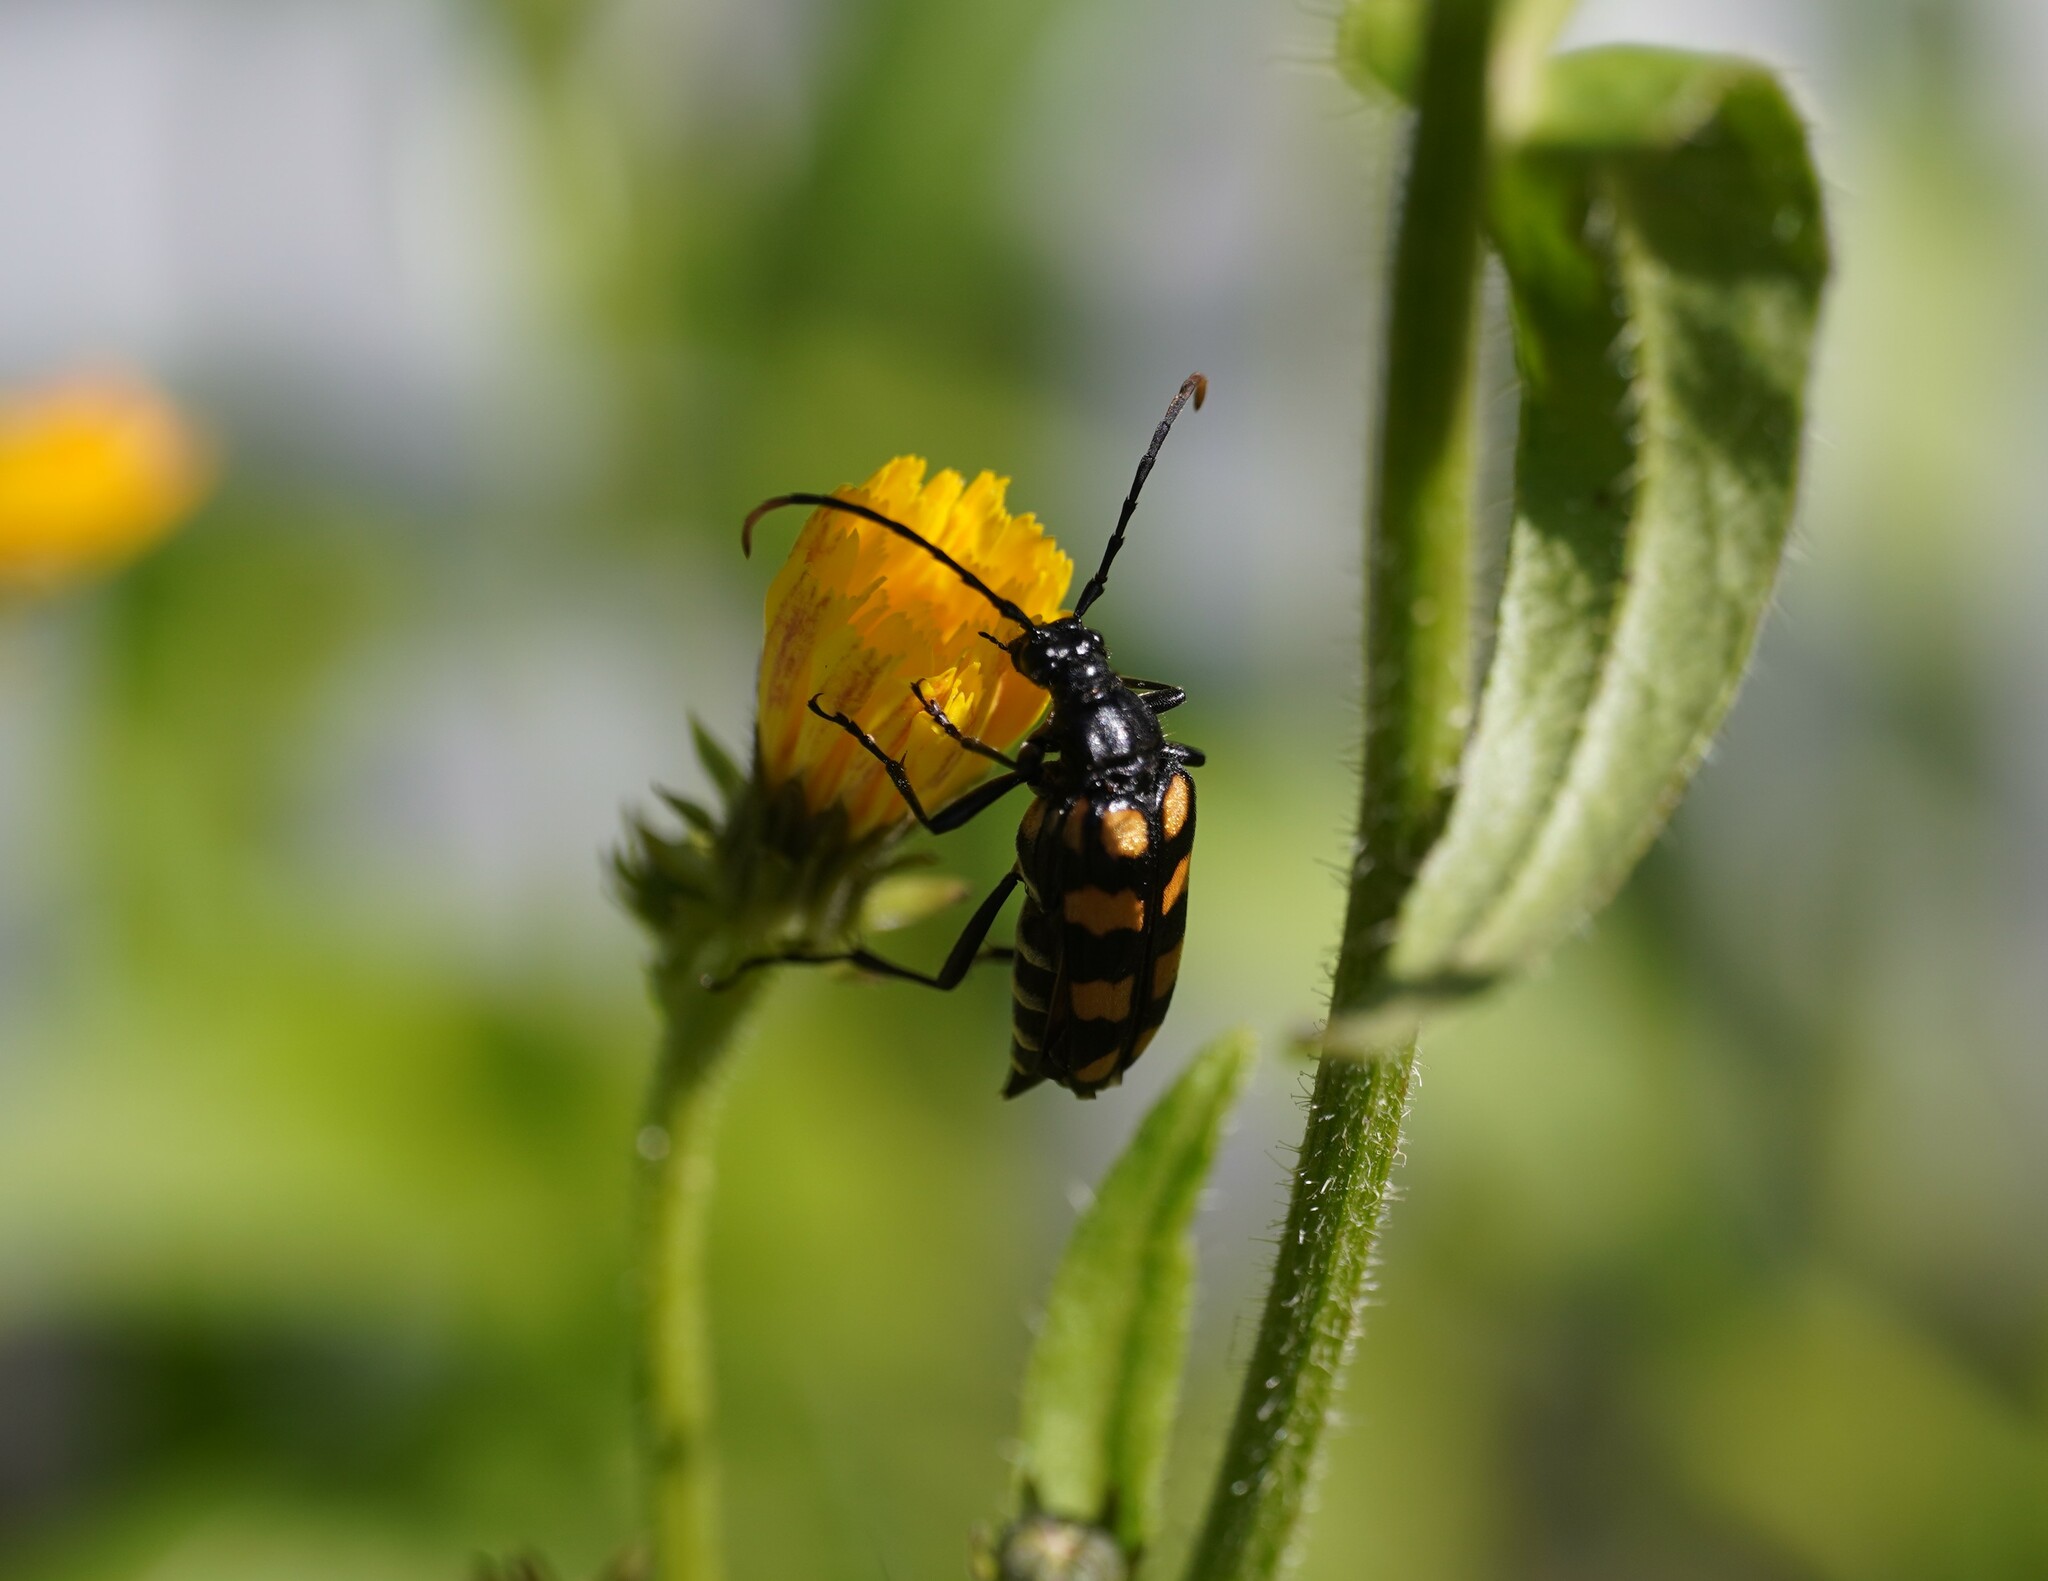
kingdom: Animalia
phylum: Arthropoda
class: Insecta
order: Coleoptera
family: Cerambycidae
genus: Leptura
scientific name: Leptura quadrifasciata
